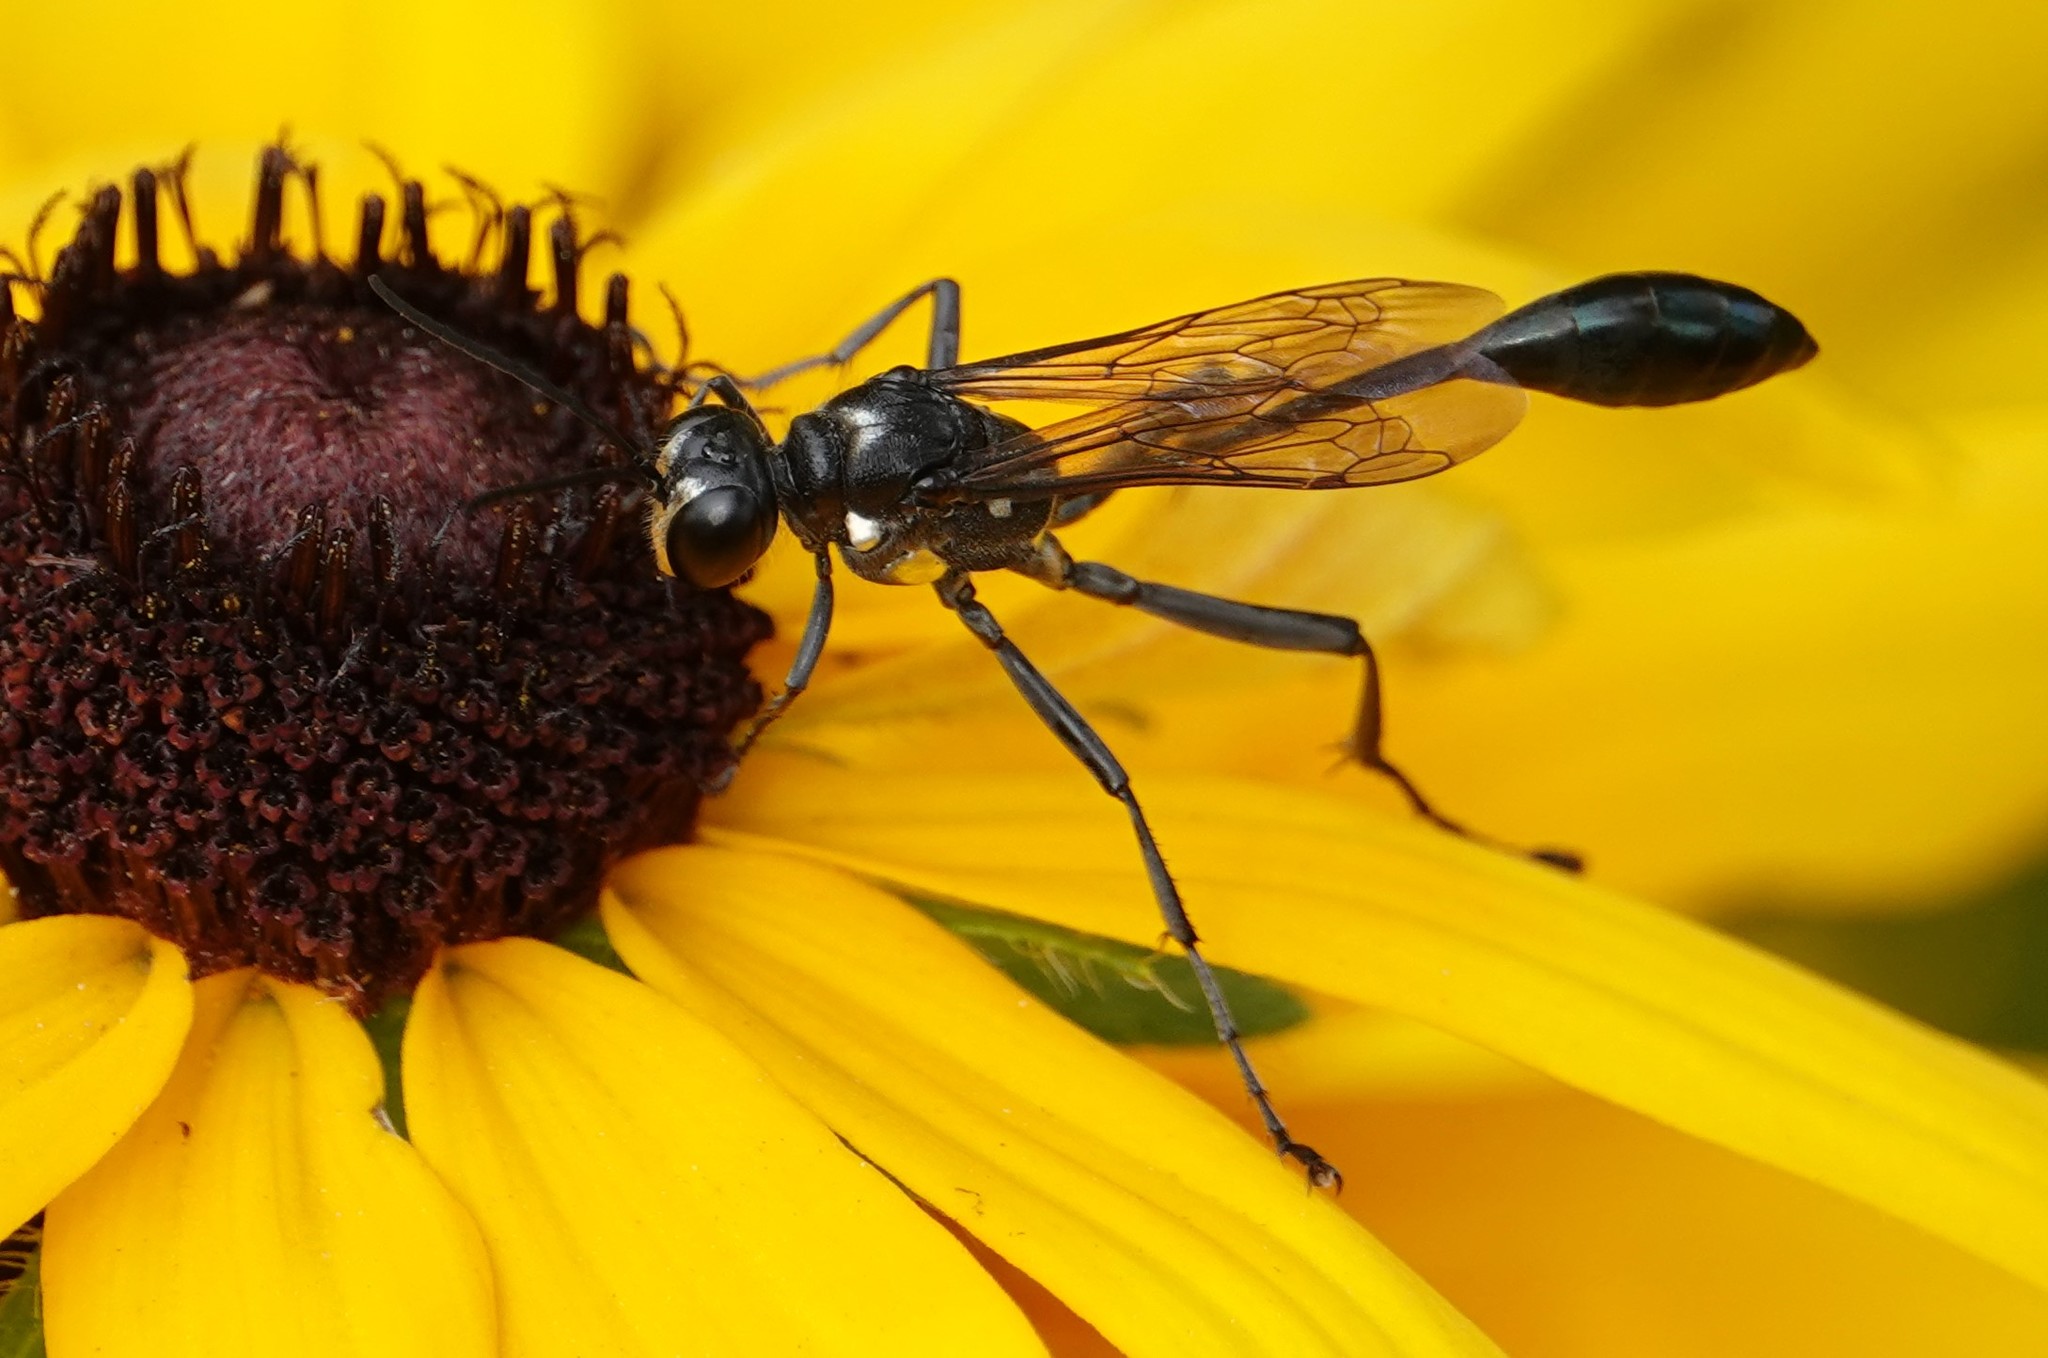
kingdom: Animalia
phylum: Arthropoda
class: Insecta
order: Hymenoptera
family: Sphecidae
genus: Eremnophila
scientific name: Eremnophila aureonotata
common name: Gold-marked thread-waisted wasp
